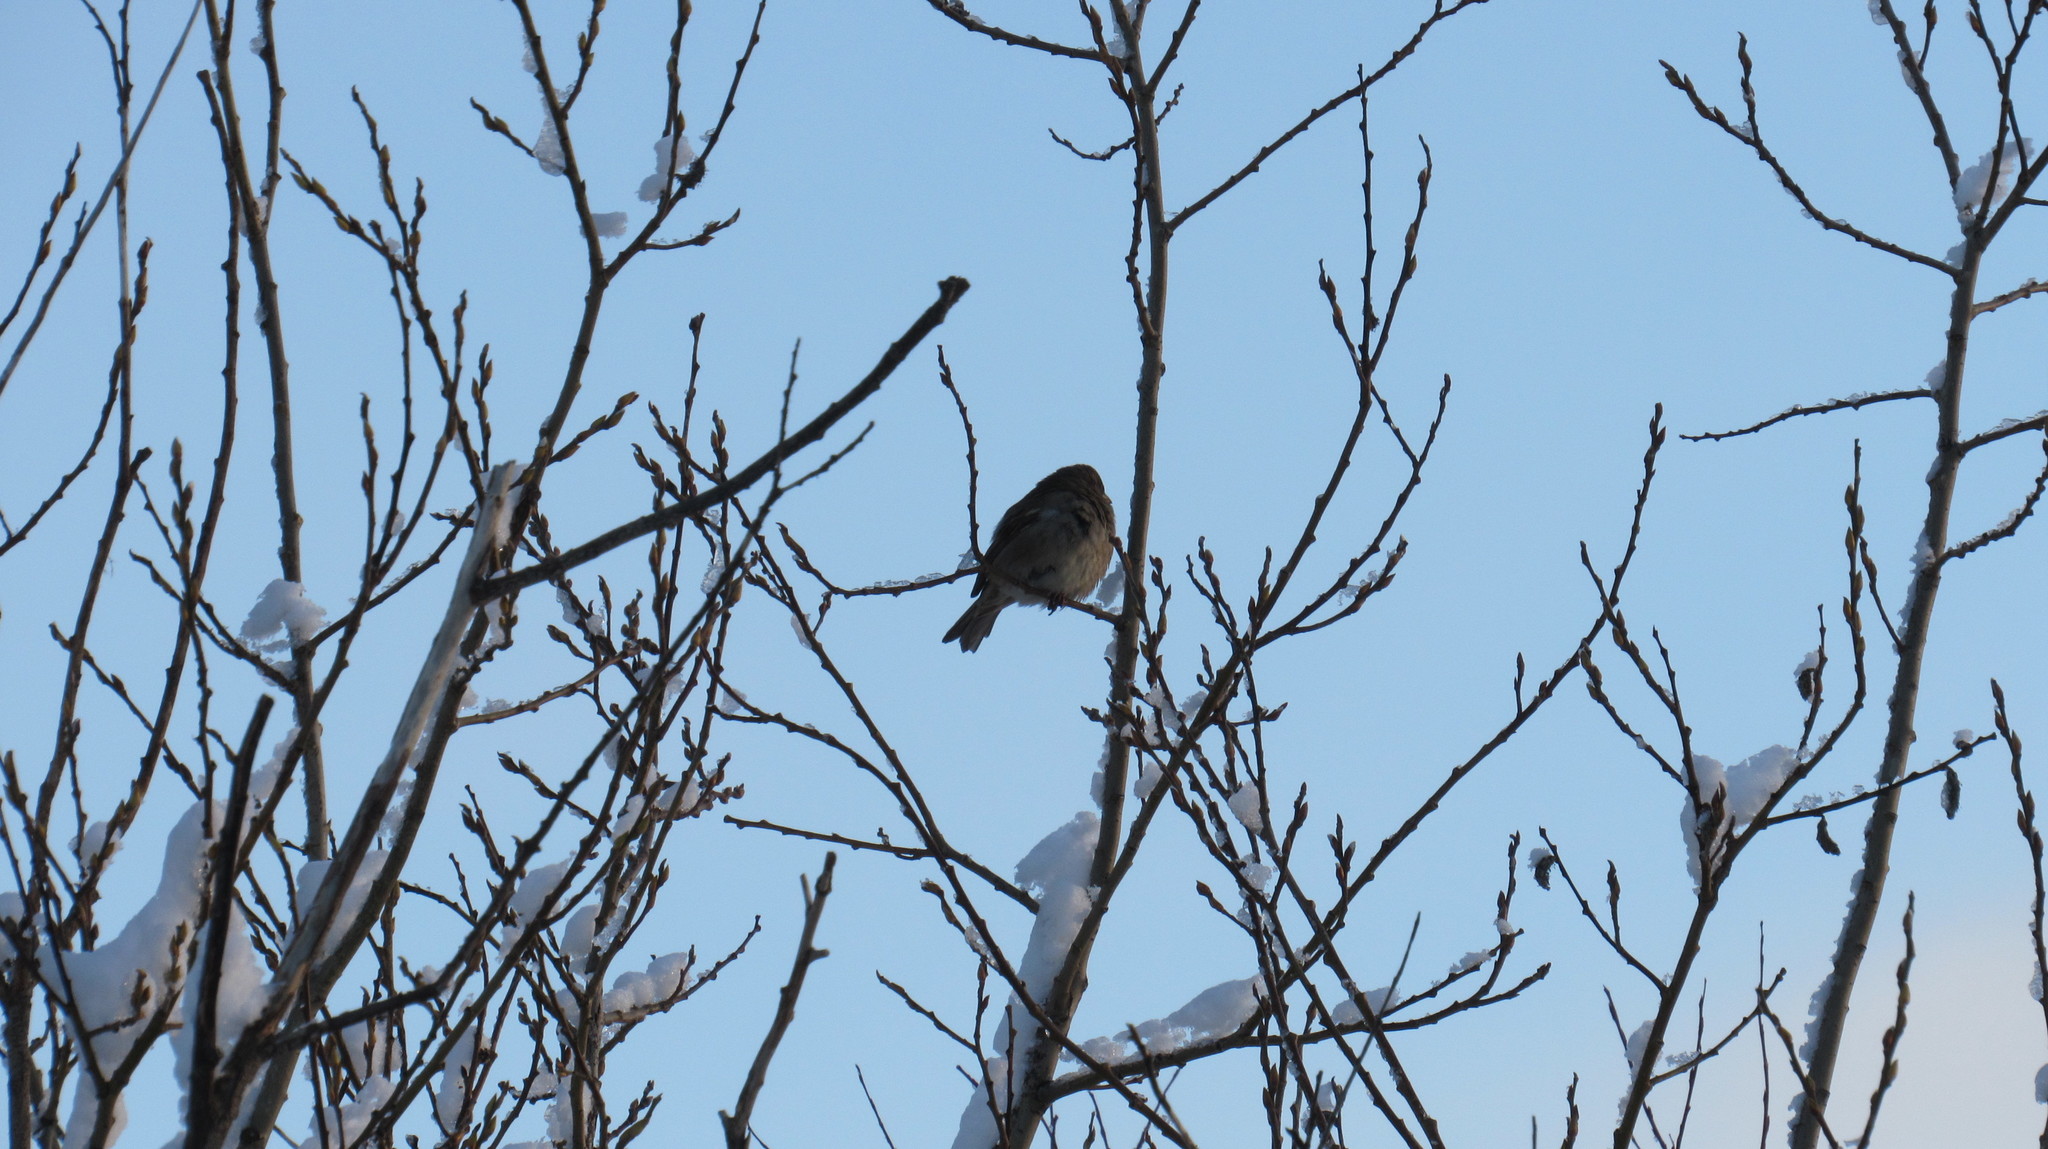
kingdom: Animalia
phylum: Chordata
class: Aves
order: Passeriformes
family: Passeridae
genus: Passer
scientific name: Passer domesticus
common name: House sparrow
